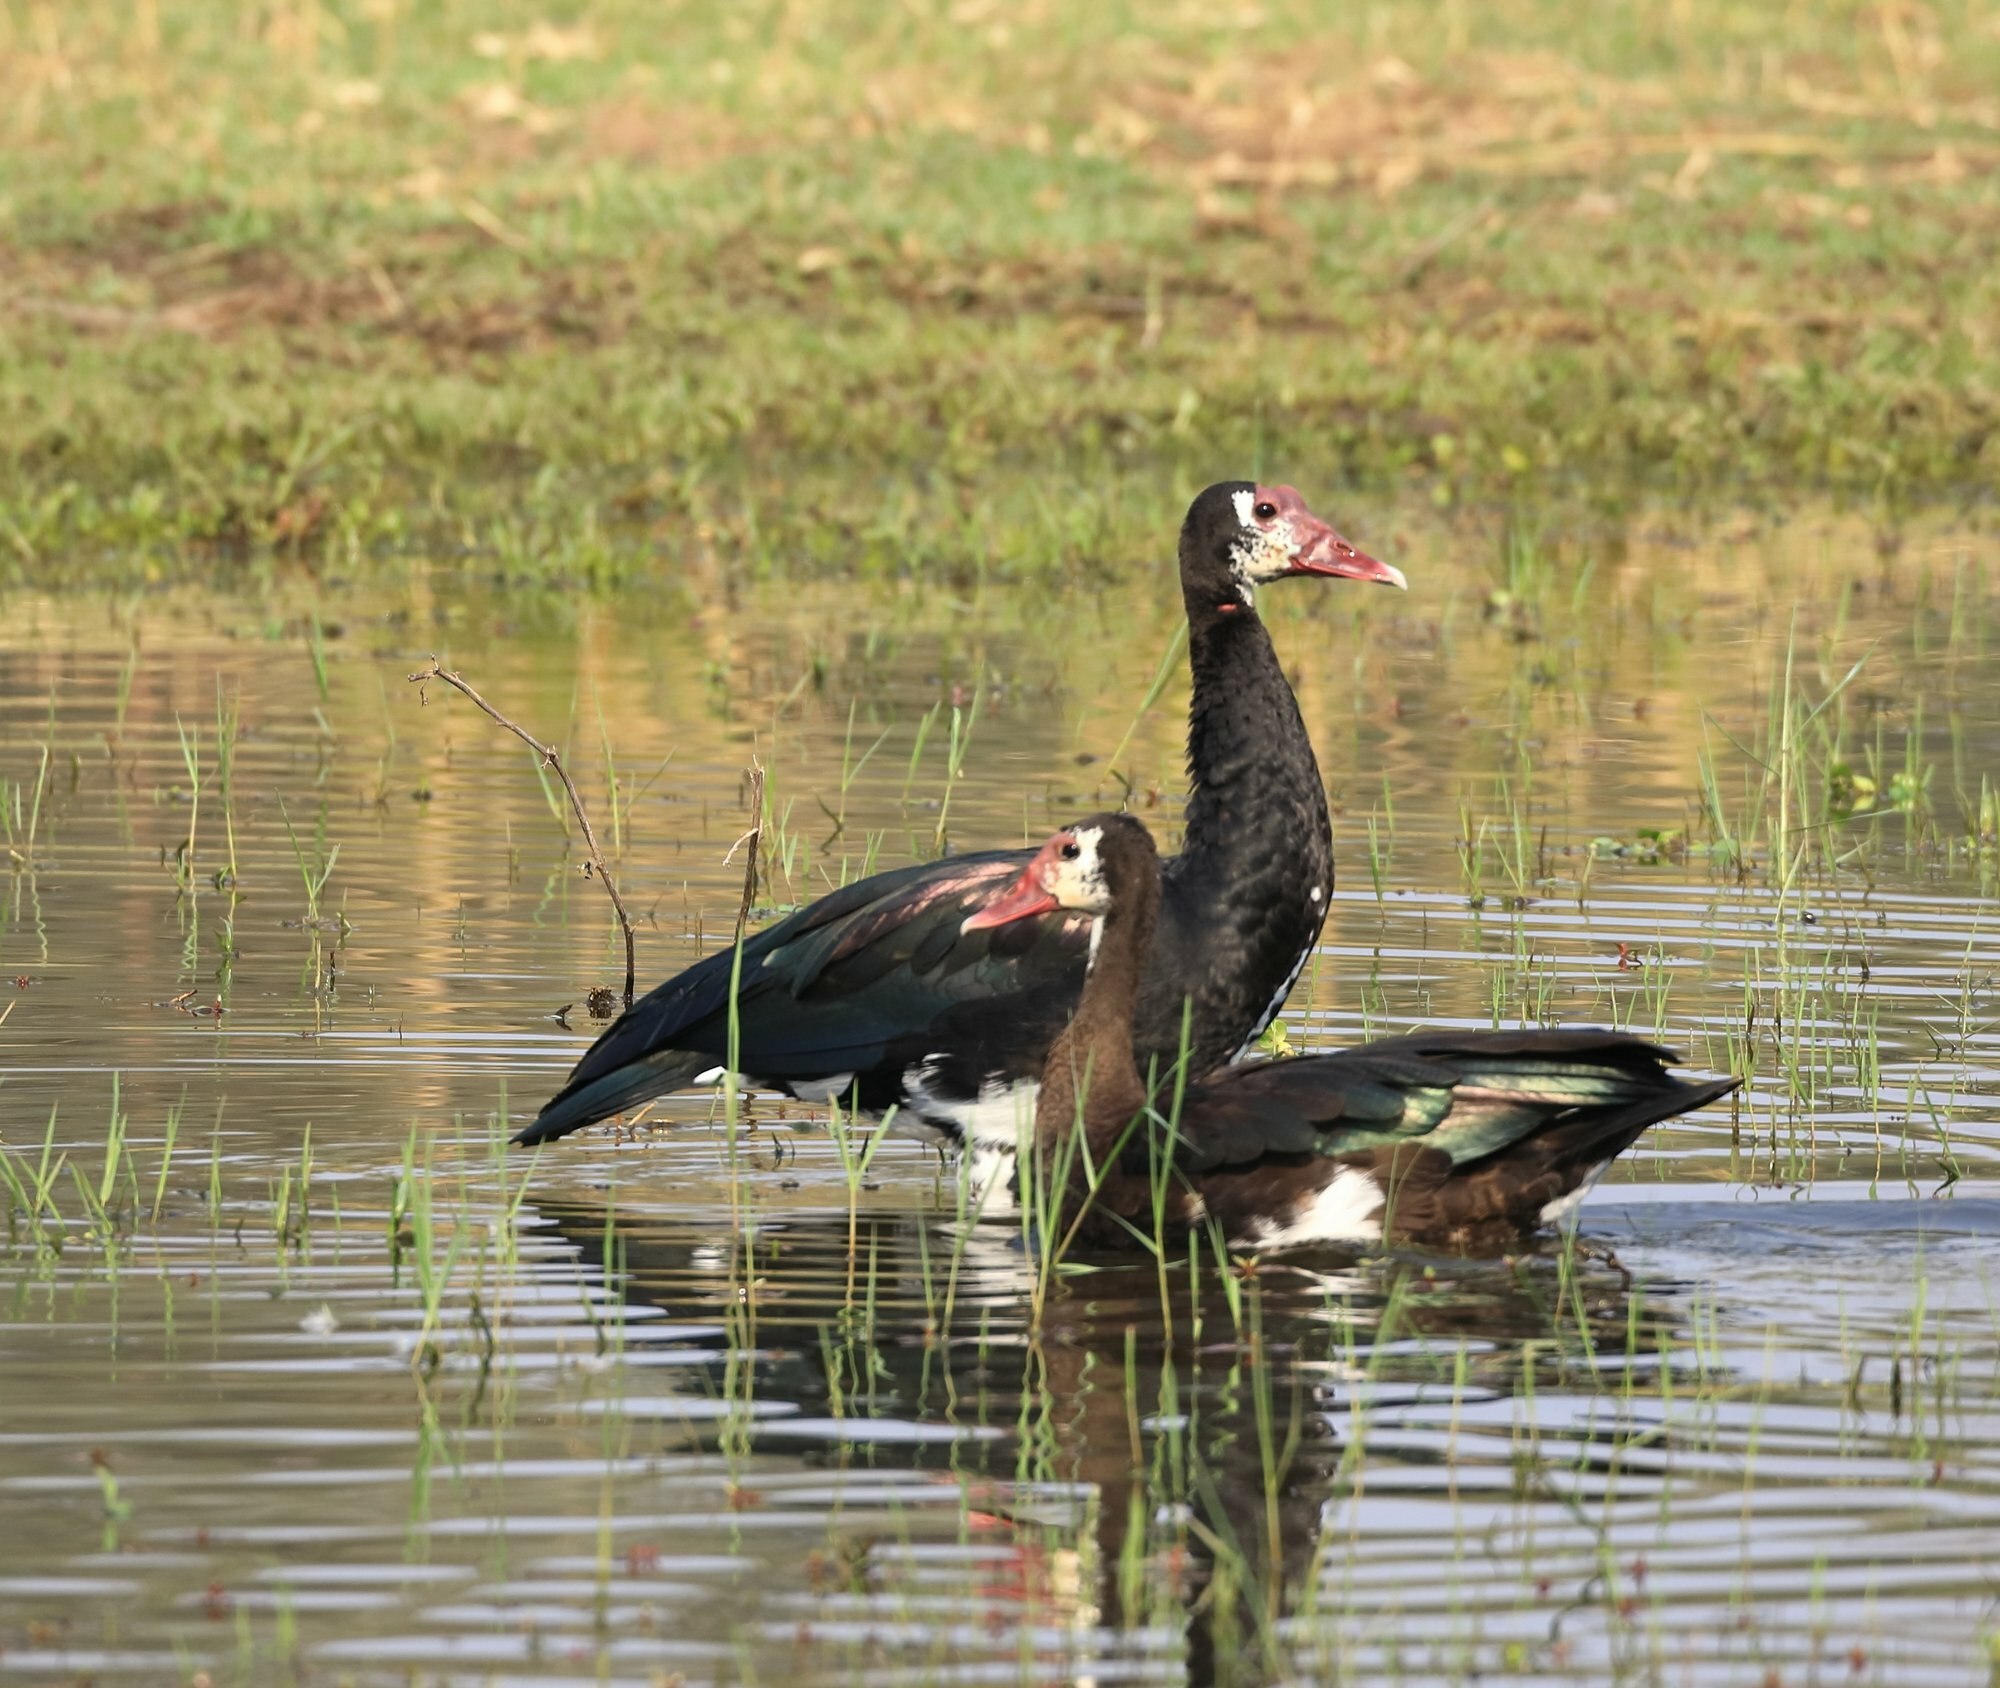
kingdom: Animalia
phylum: Chordata
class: Aves
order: Anseriformes
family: Anatidae
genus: Plectropterus
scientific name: Plectropterus gambensis
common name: Spur-winged goose
